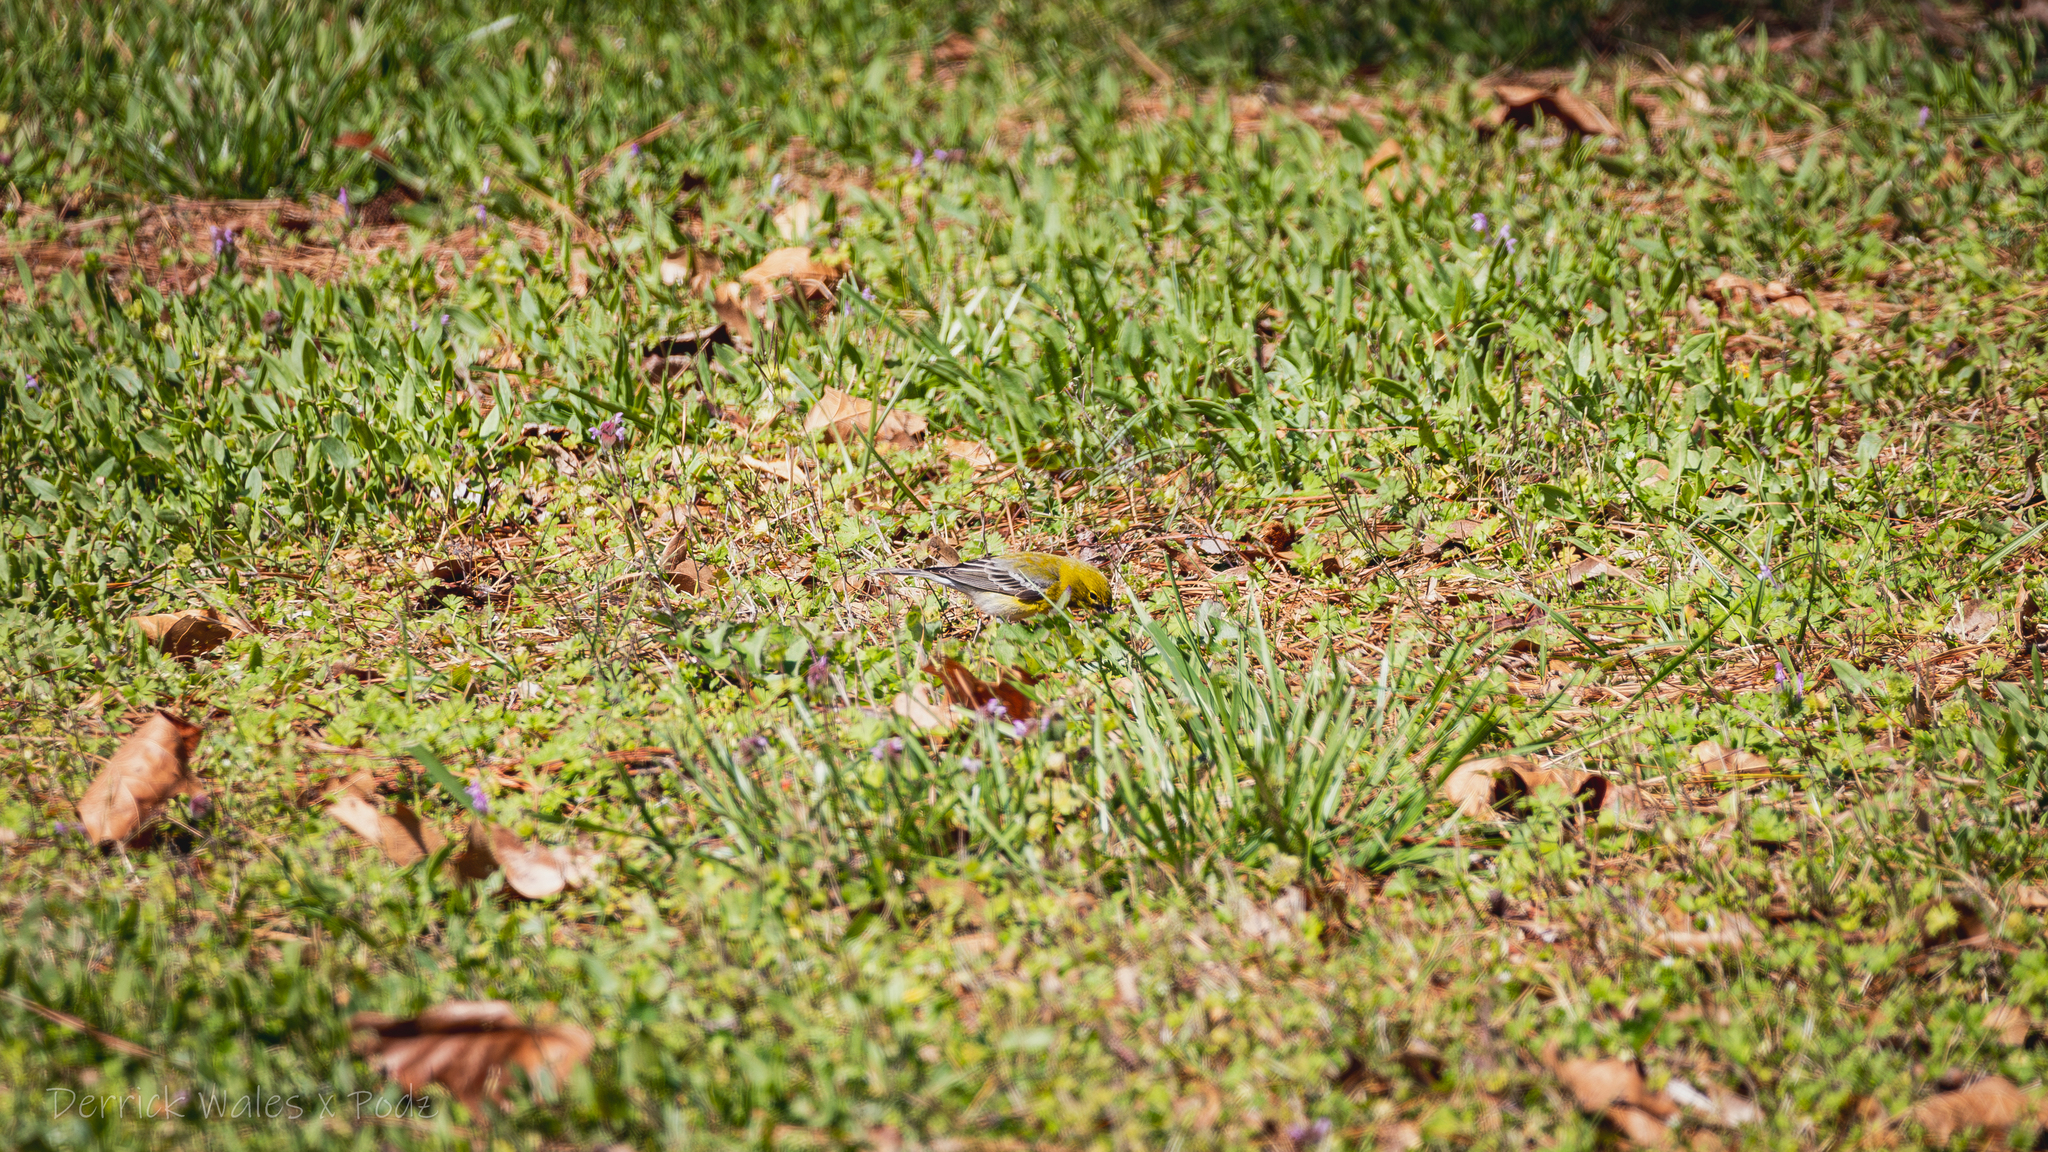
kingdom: Animalia
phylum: Chordata
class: Aves
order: Passeriformes
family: Parulidae
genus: Setophaga
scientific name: Setophaga pinus
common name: Pine warbler
